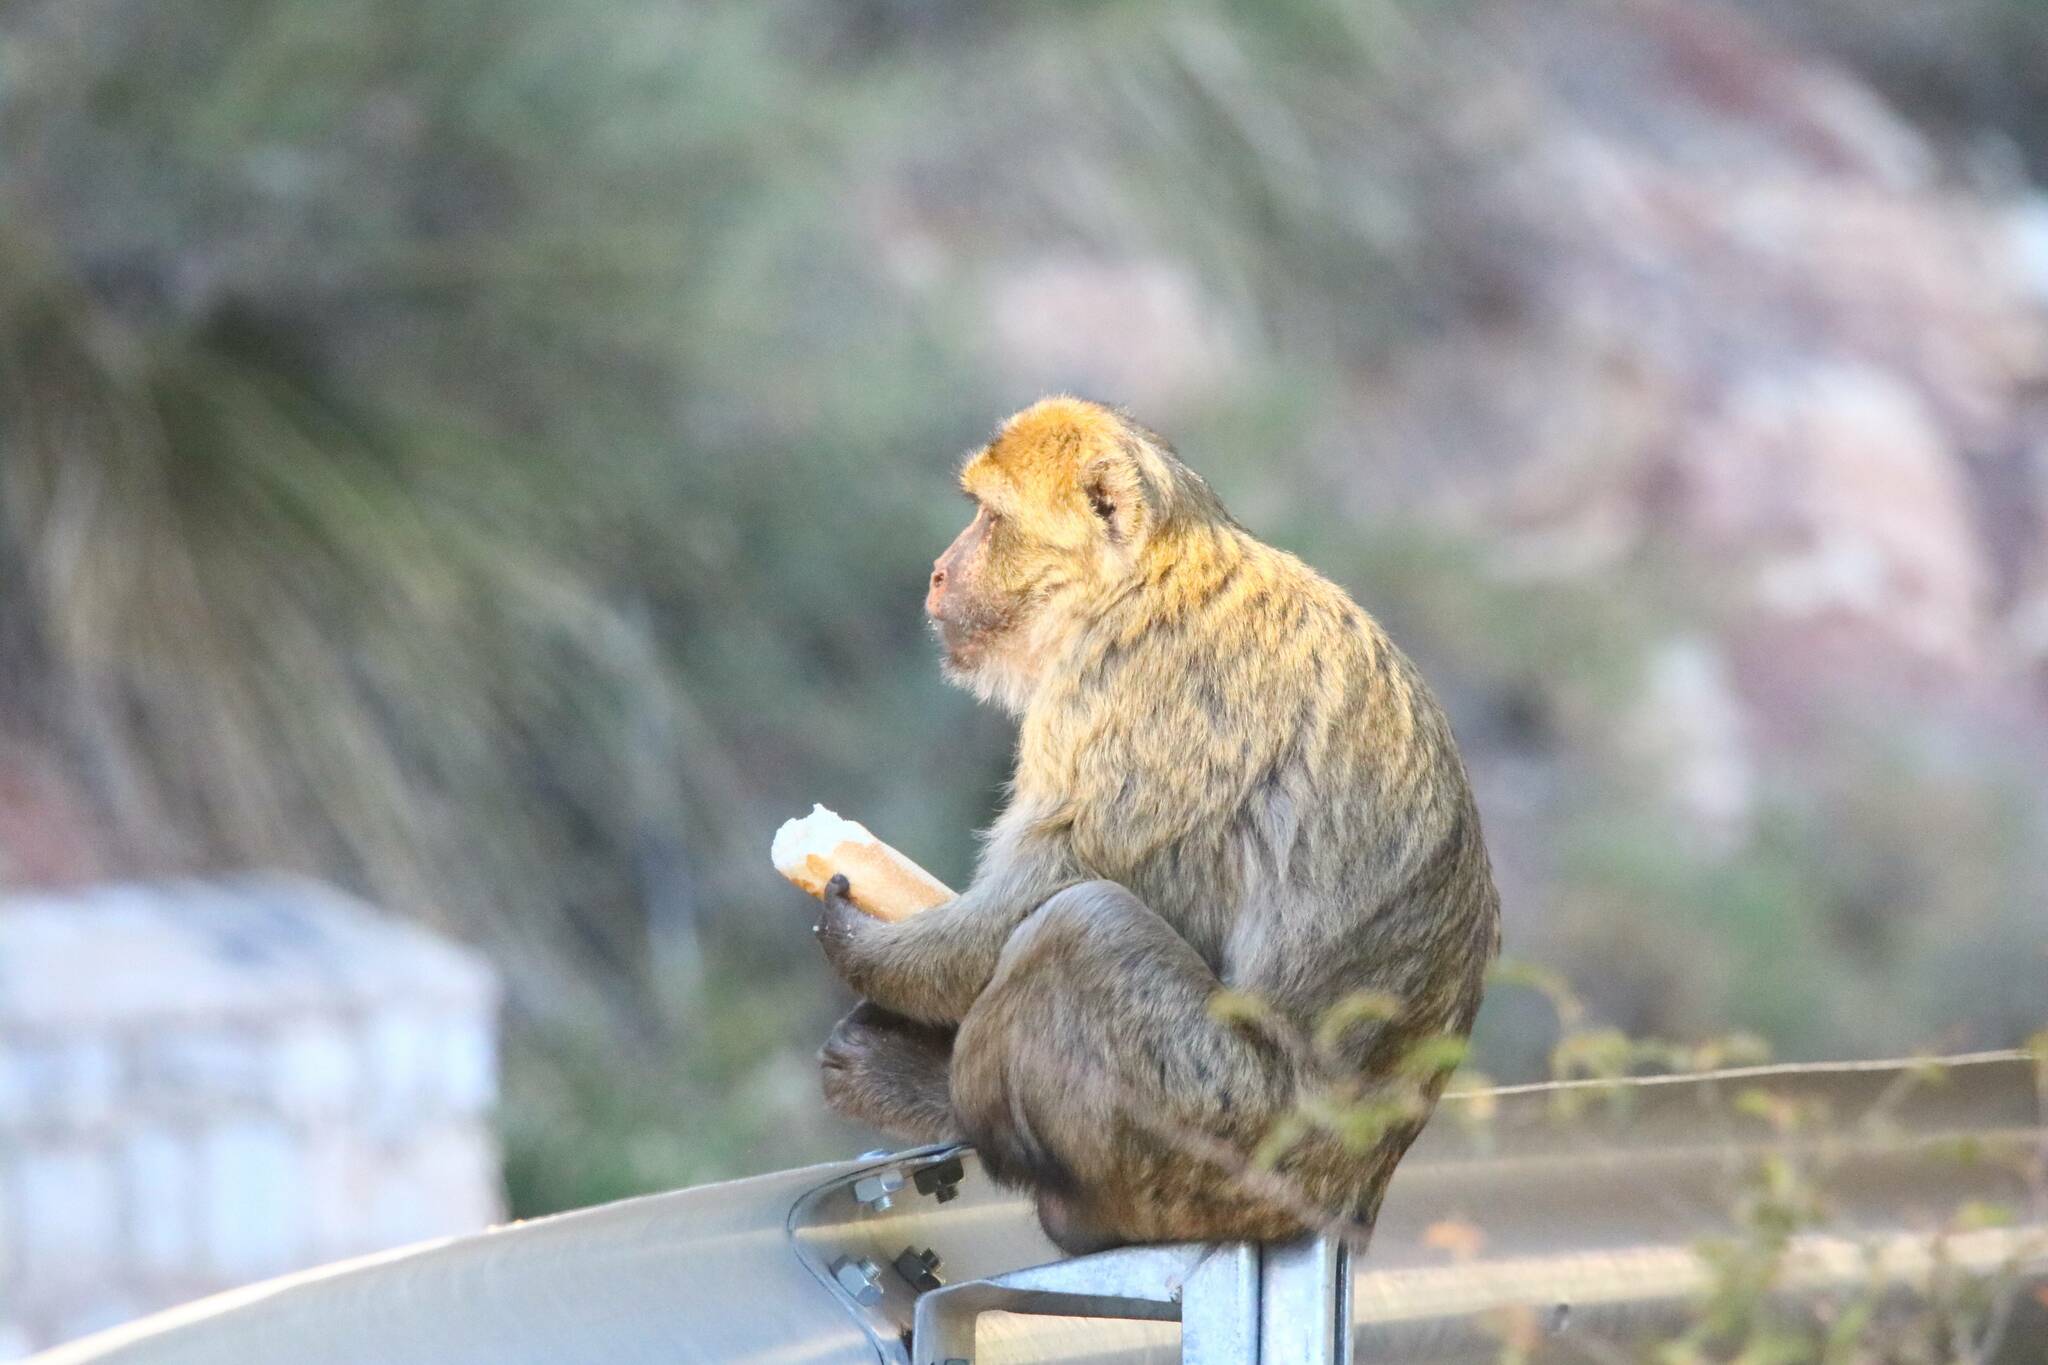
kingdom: Animalia
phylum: Chordata
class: Mammalia
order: Primates
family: Cercopithecidae
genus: Macaca
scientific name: Macaca sylvanus
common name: Barbary macaque
